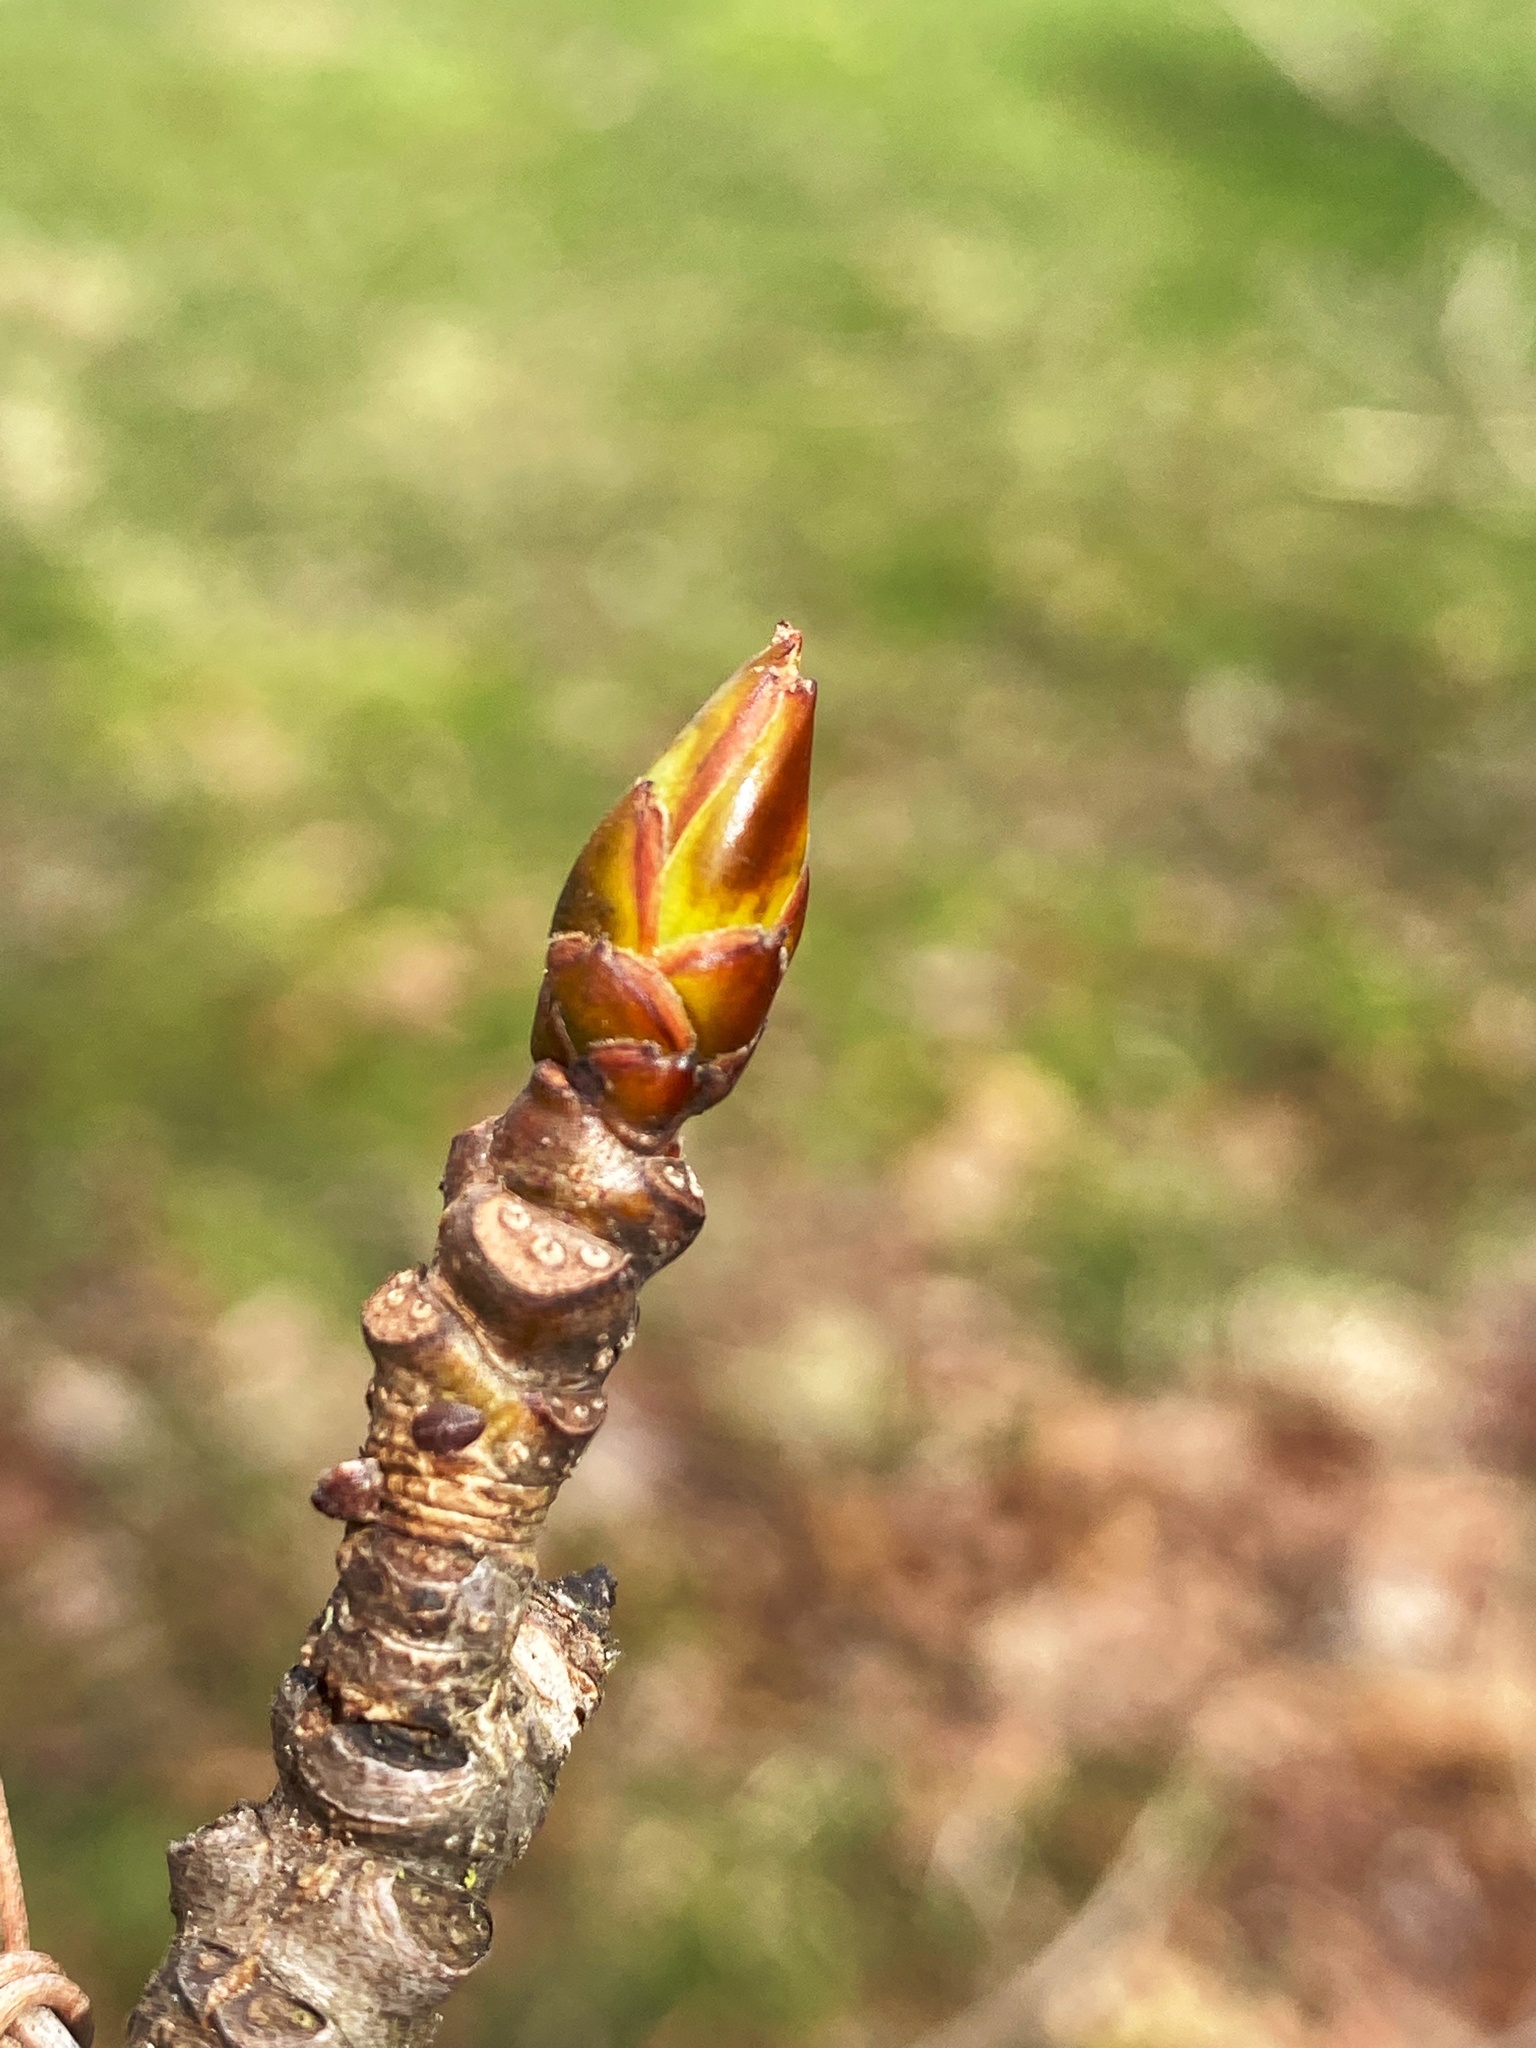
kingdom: Plantae
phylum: Tracheophyta
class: Magnoliopsida
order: Saxifragales
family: Altingiaceae
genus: Liquidambar
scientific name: Liquidambar styraciflua
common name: Sweet gum
